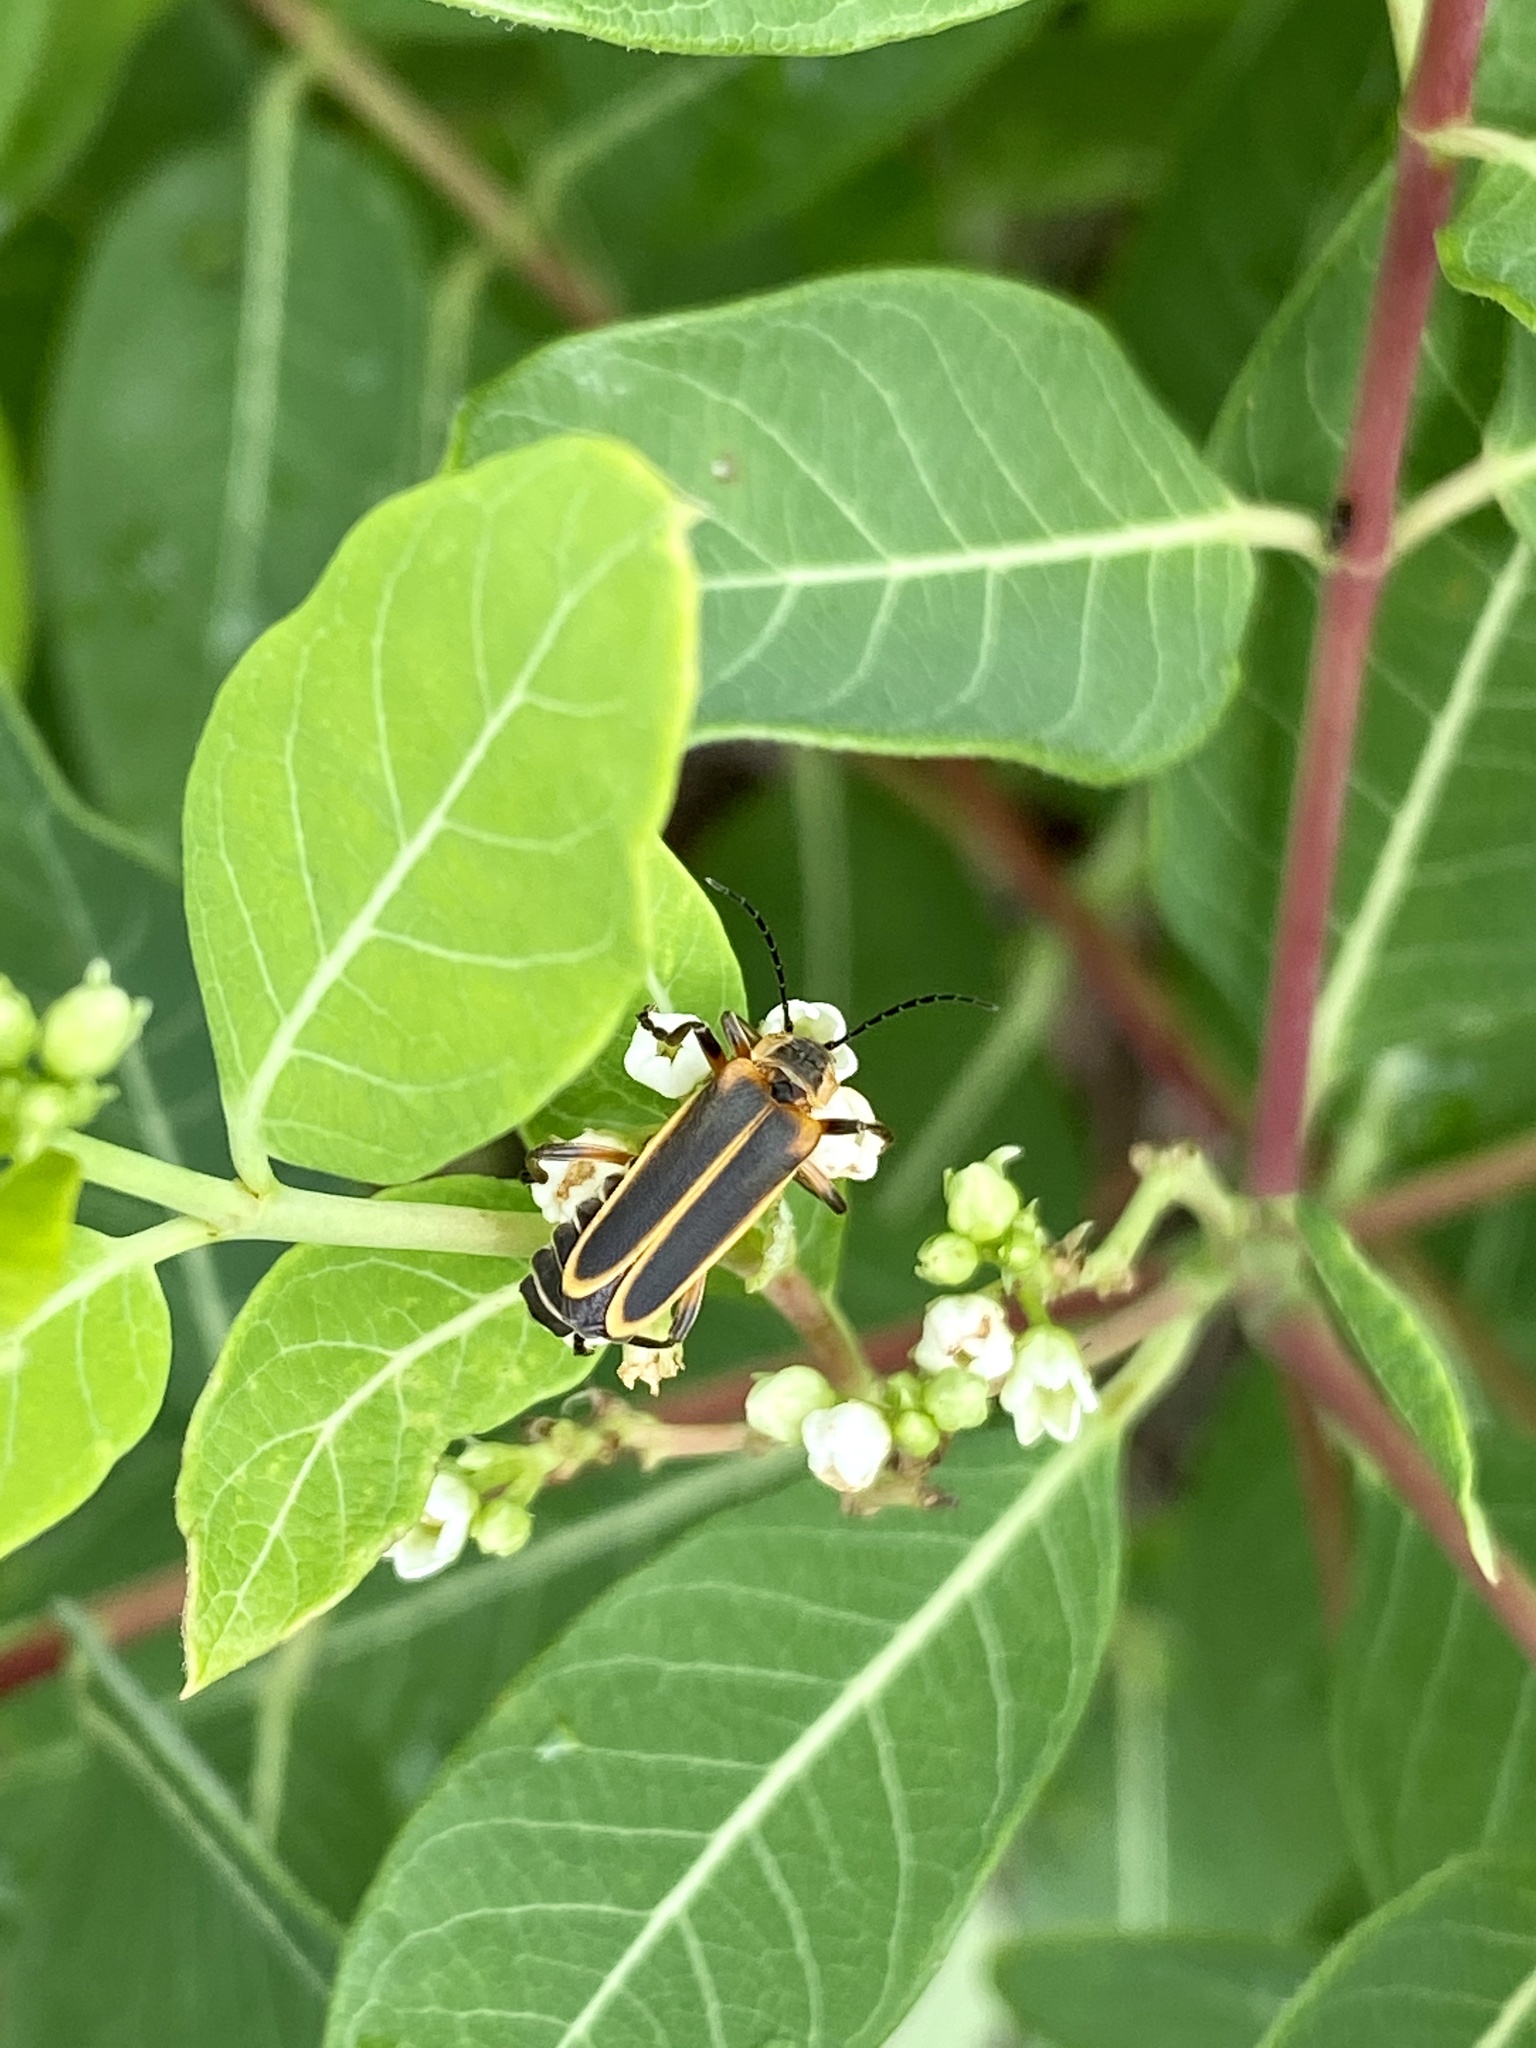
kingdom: Animalia
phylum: Arthropoda
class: Insecta
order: Coleoptera
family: Cantharidae
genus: Chauliognathus
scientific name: Chauliognathus marginatus
